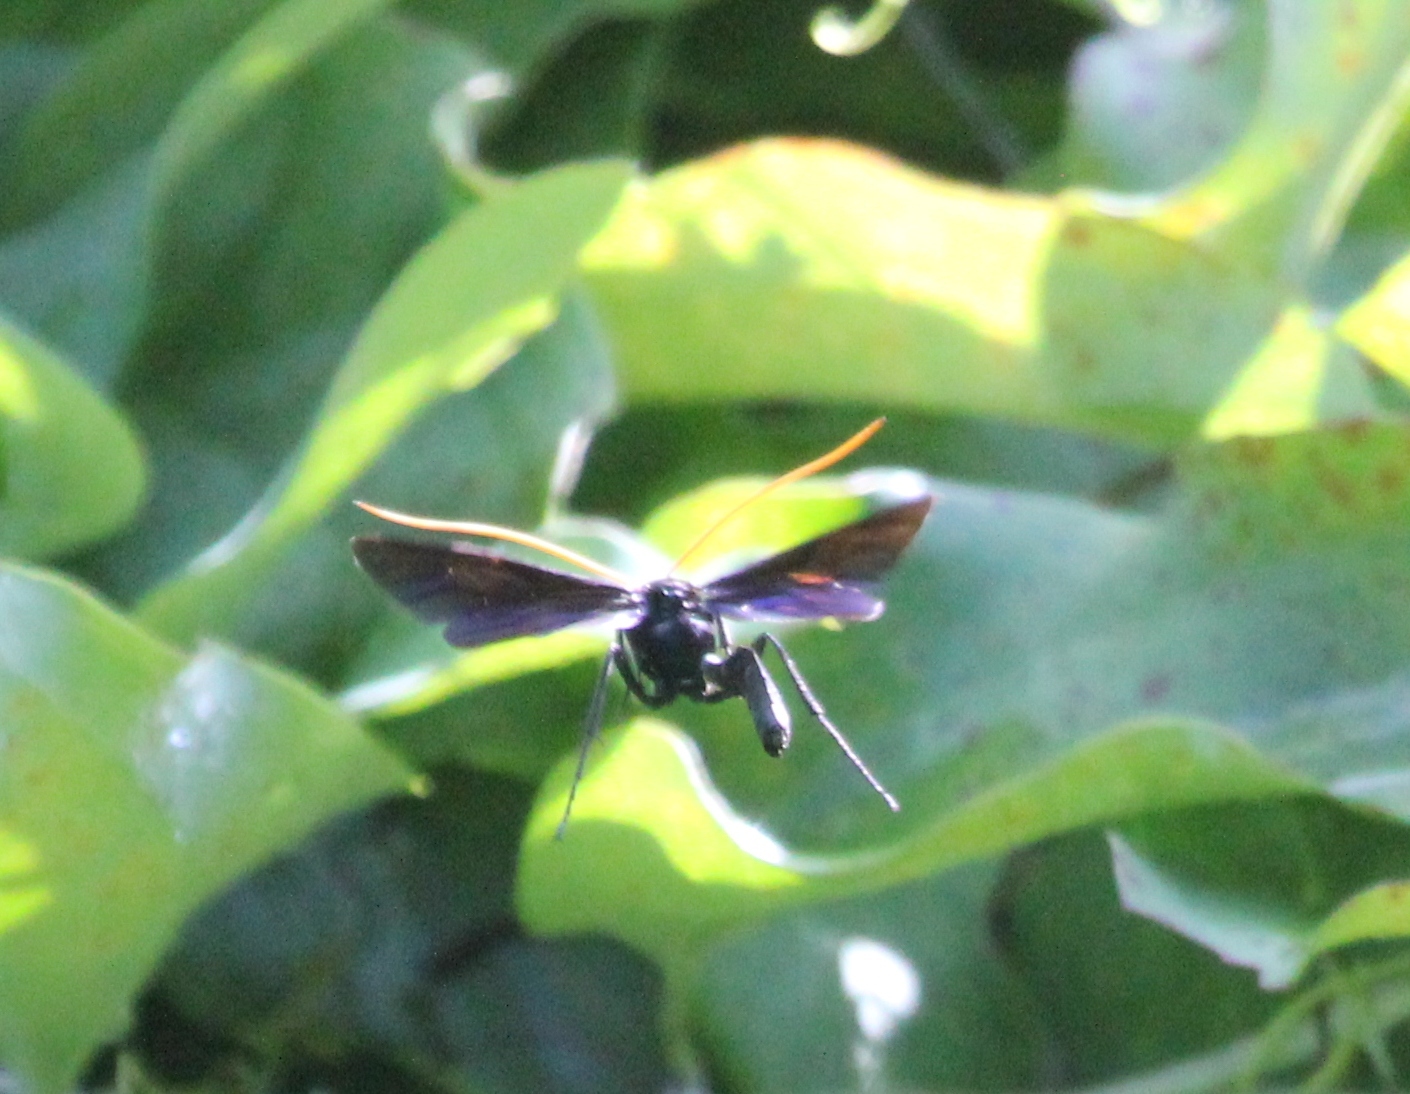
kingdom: Animalia
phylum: Arthropoda
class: Insecta
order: Hymenoptera
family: Ichneumonidae
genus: Thyreodon
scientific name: Thyreodon atricolor
